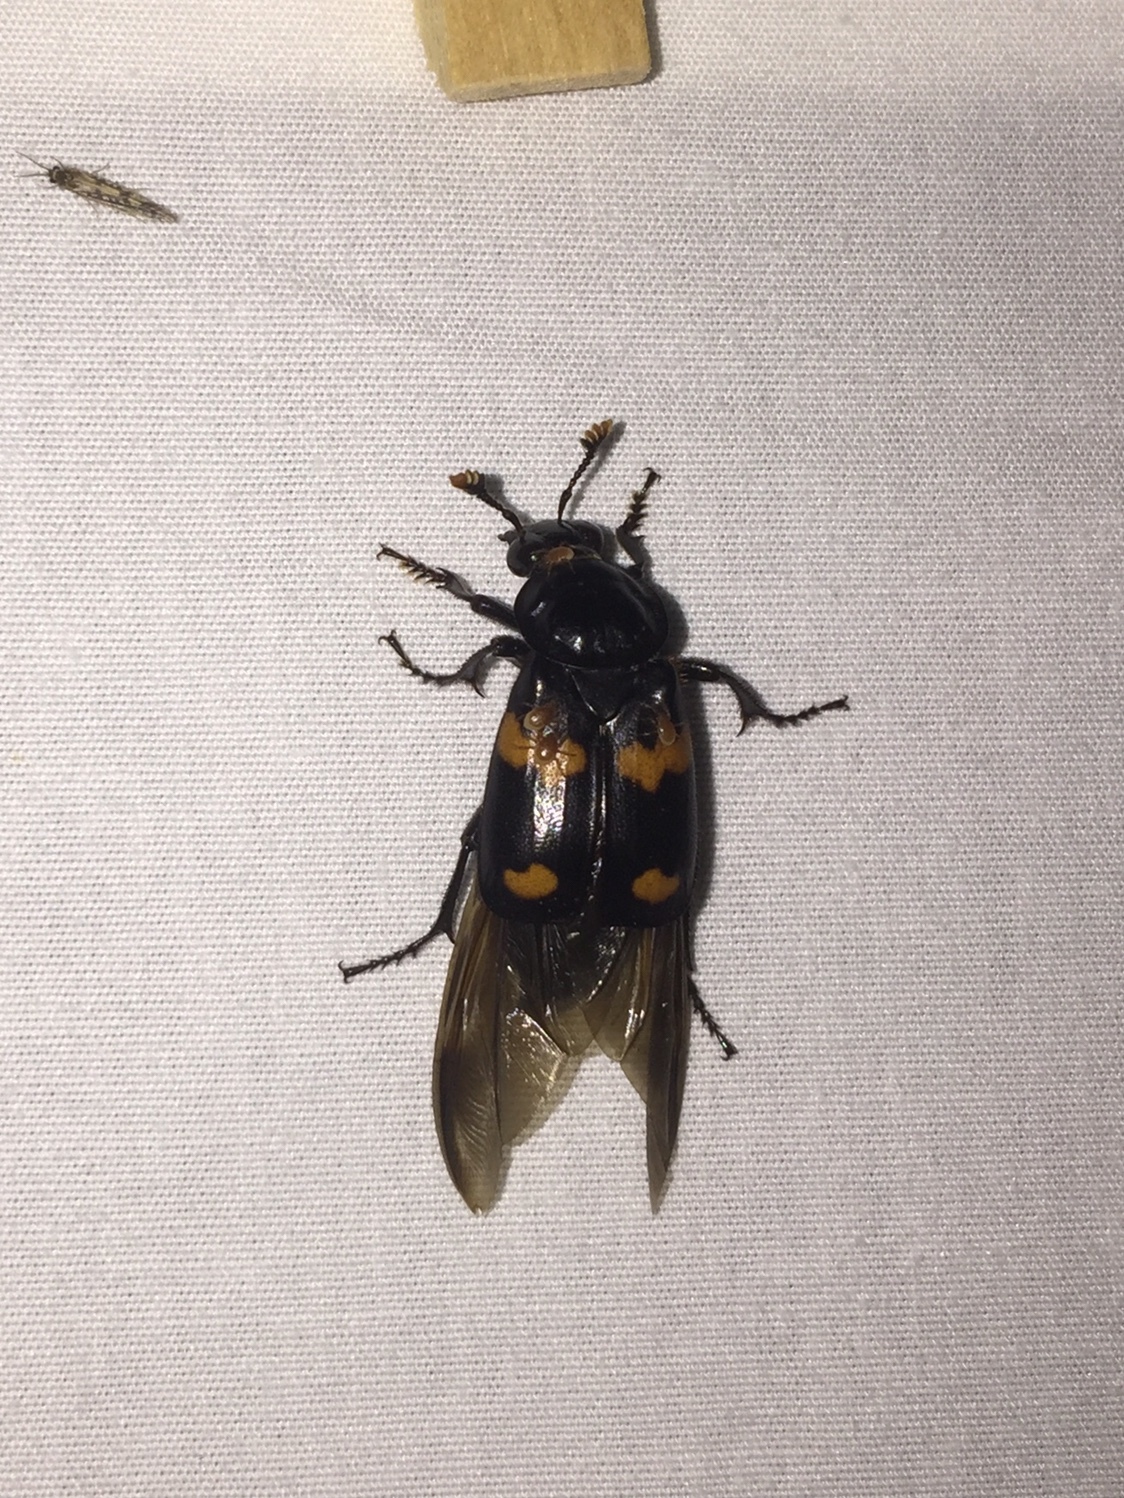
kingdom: Animalia
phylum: Arthropoda
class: Insecta
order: Coleoptera
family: Staphylinidae
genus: Nicrophorus
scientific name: Nicrophorus orbicollis
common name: Roundneck sexton beetle
